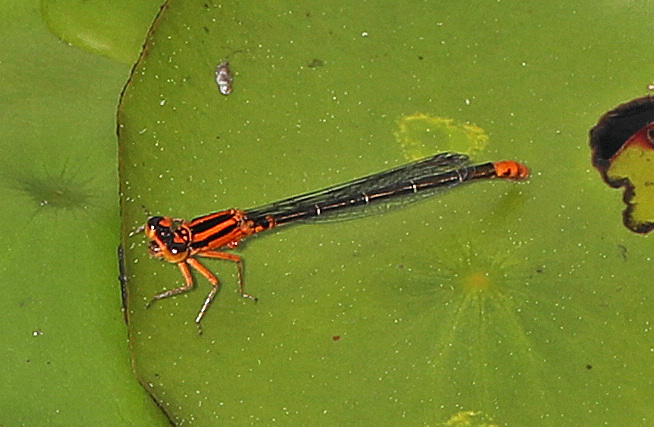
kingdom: Animalia
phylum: Arthropoda
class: Insecta
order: Odonata
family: Coenagrionidae
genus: Ischnura
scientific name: Ischnura kellicotti
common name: Lilypad forktail
